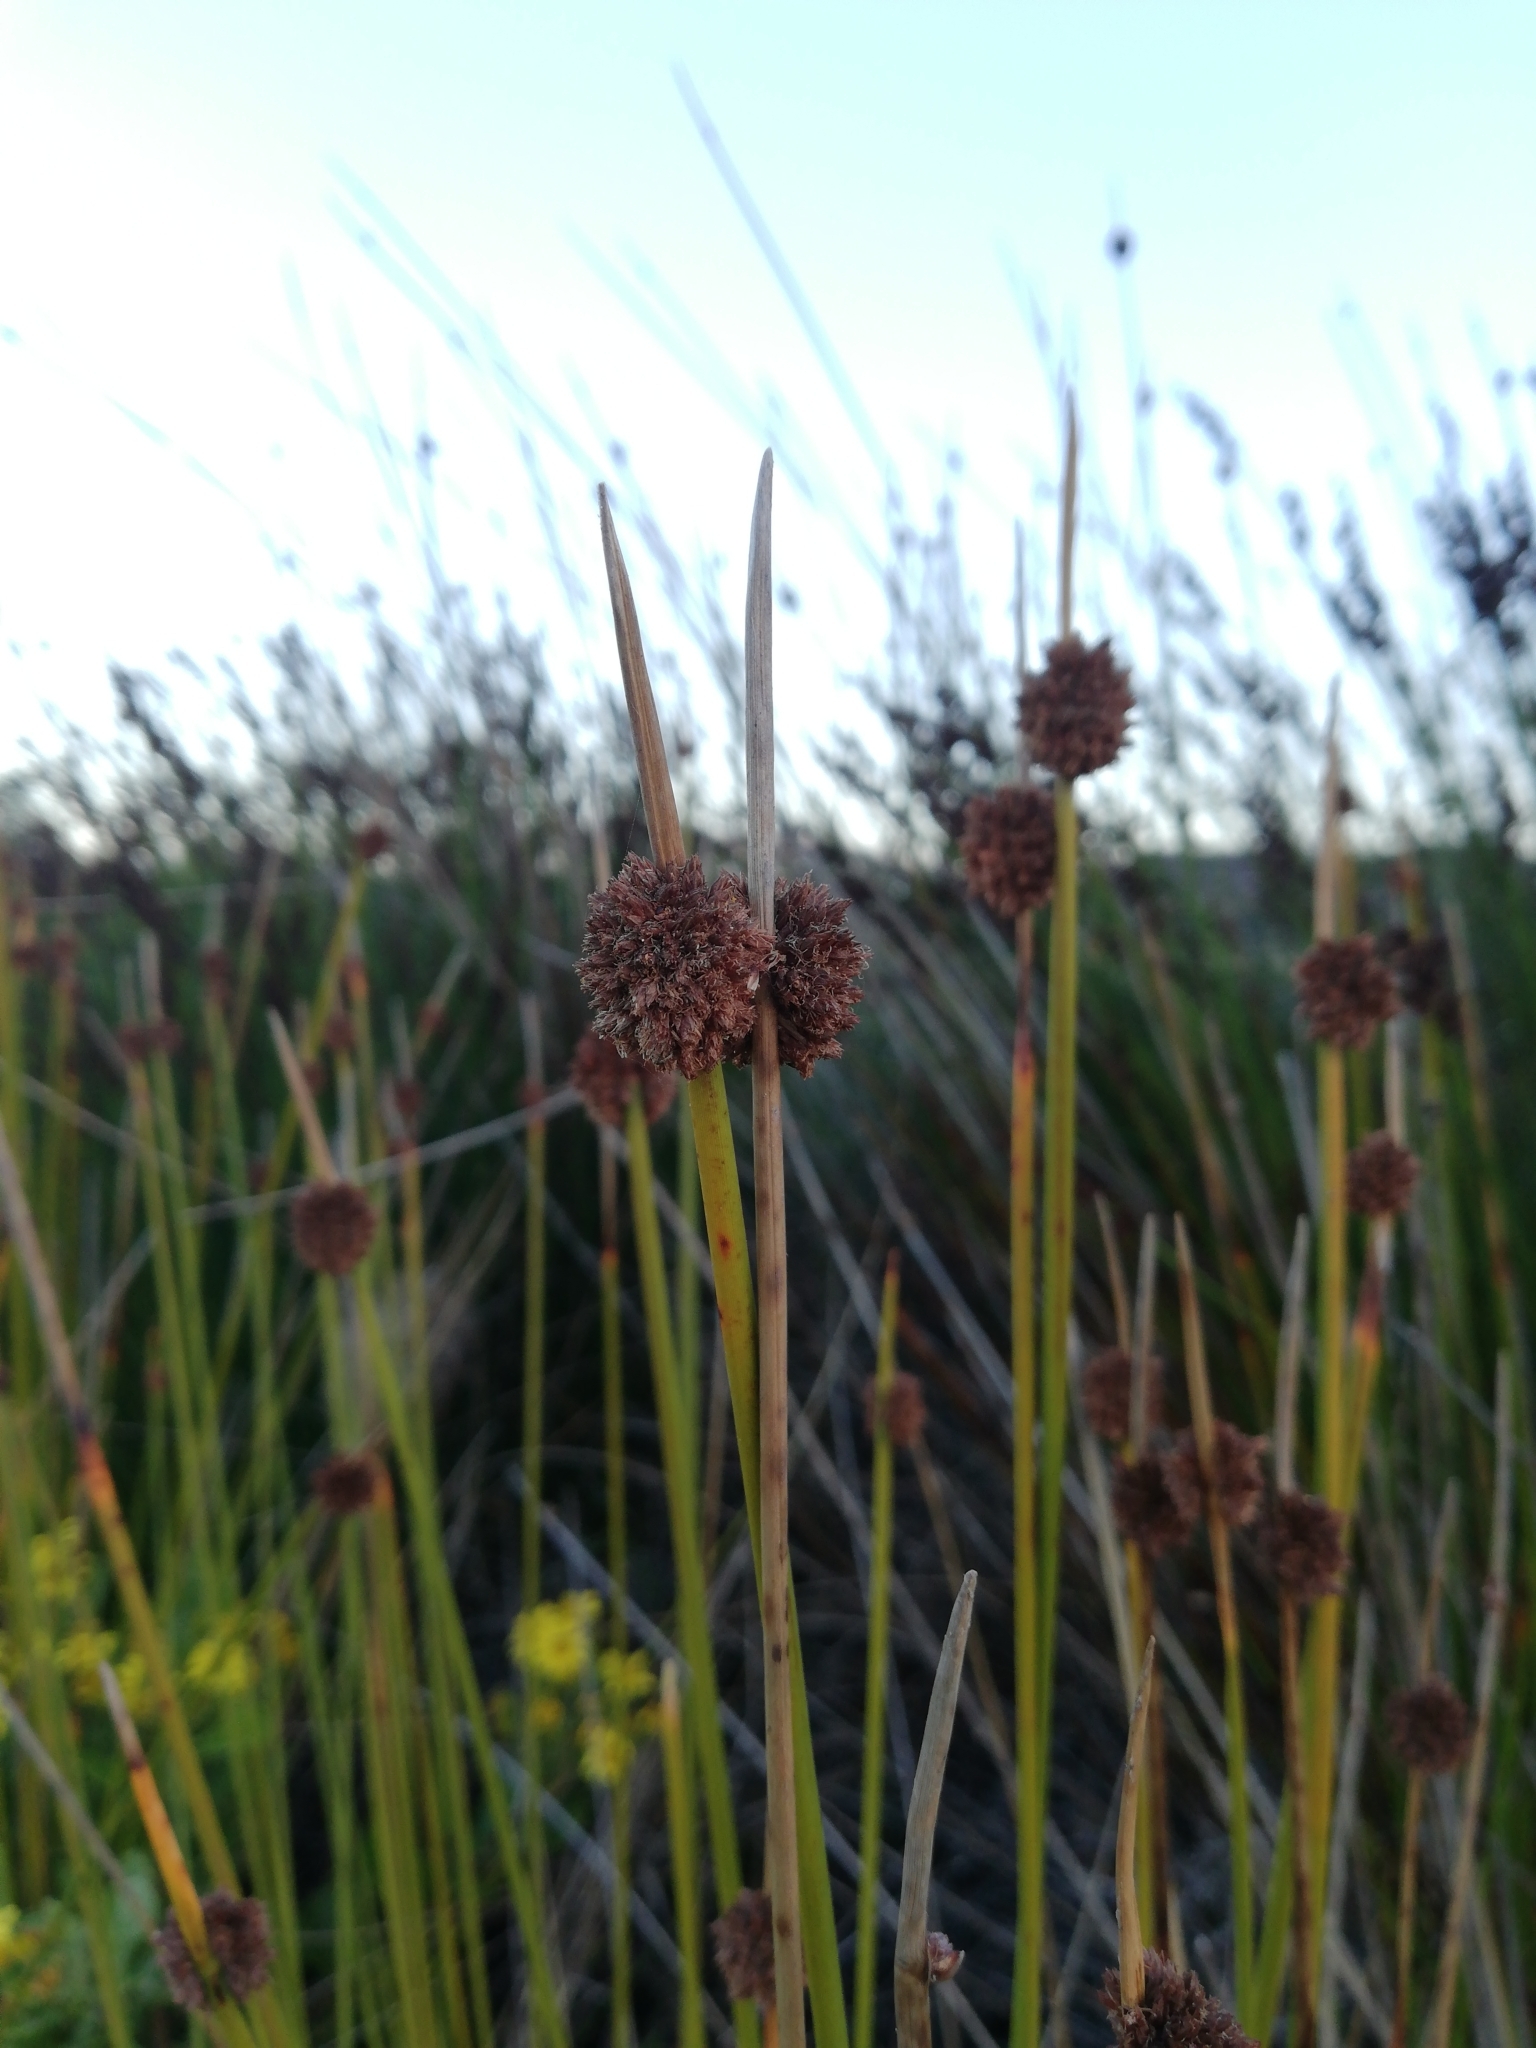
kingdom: Plantae
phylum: Tracheophyta
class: Liliopsida
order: Poales
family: Cyperaceae
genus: Ficinia
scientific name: Ficinia nodosa
